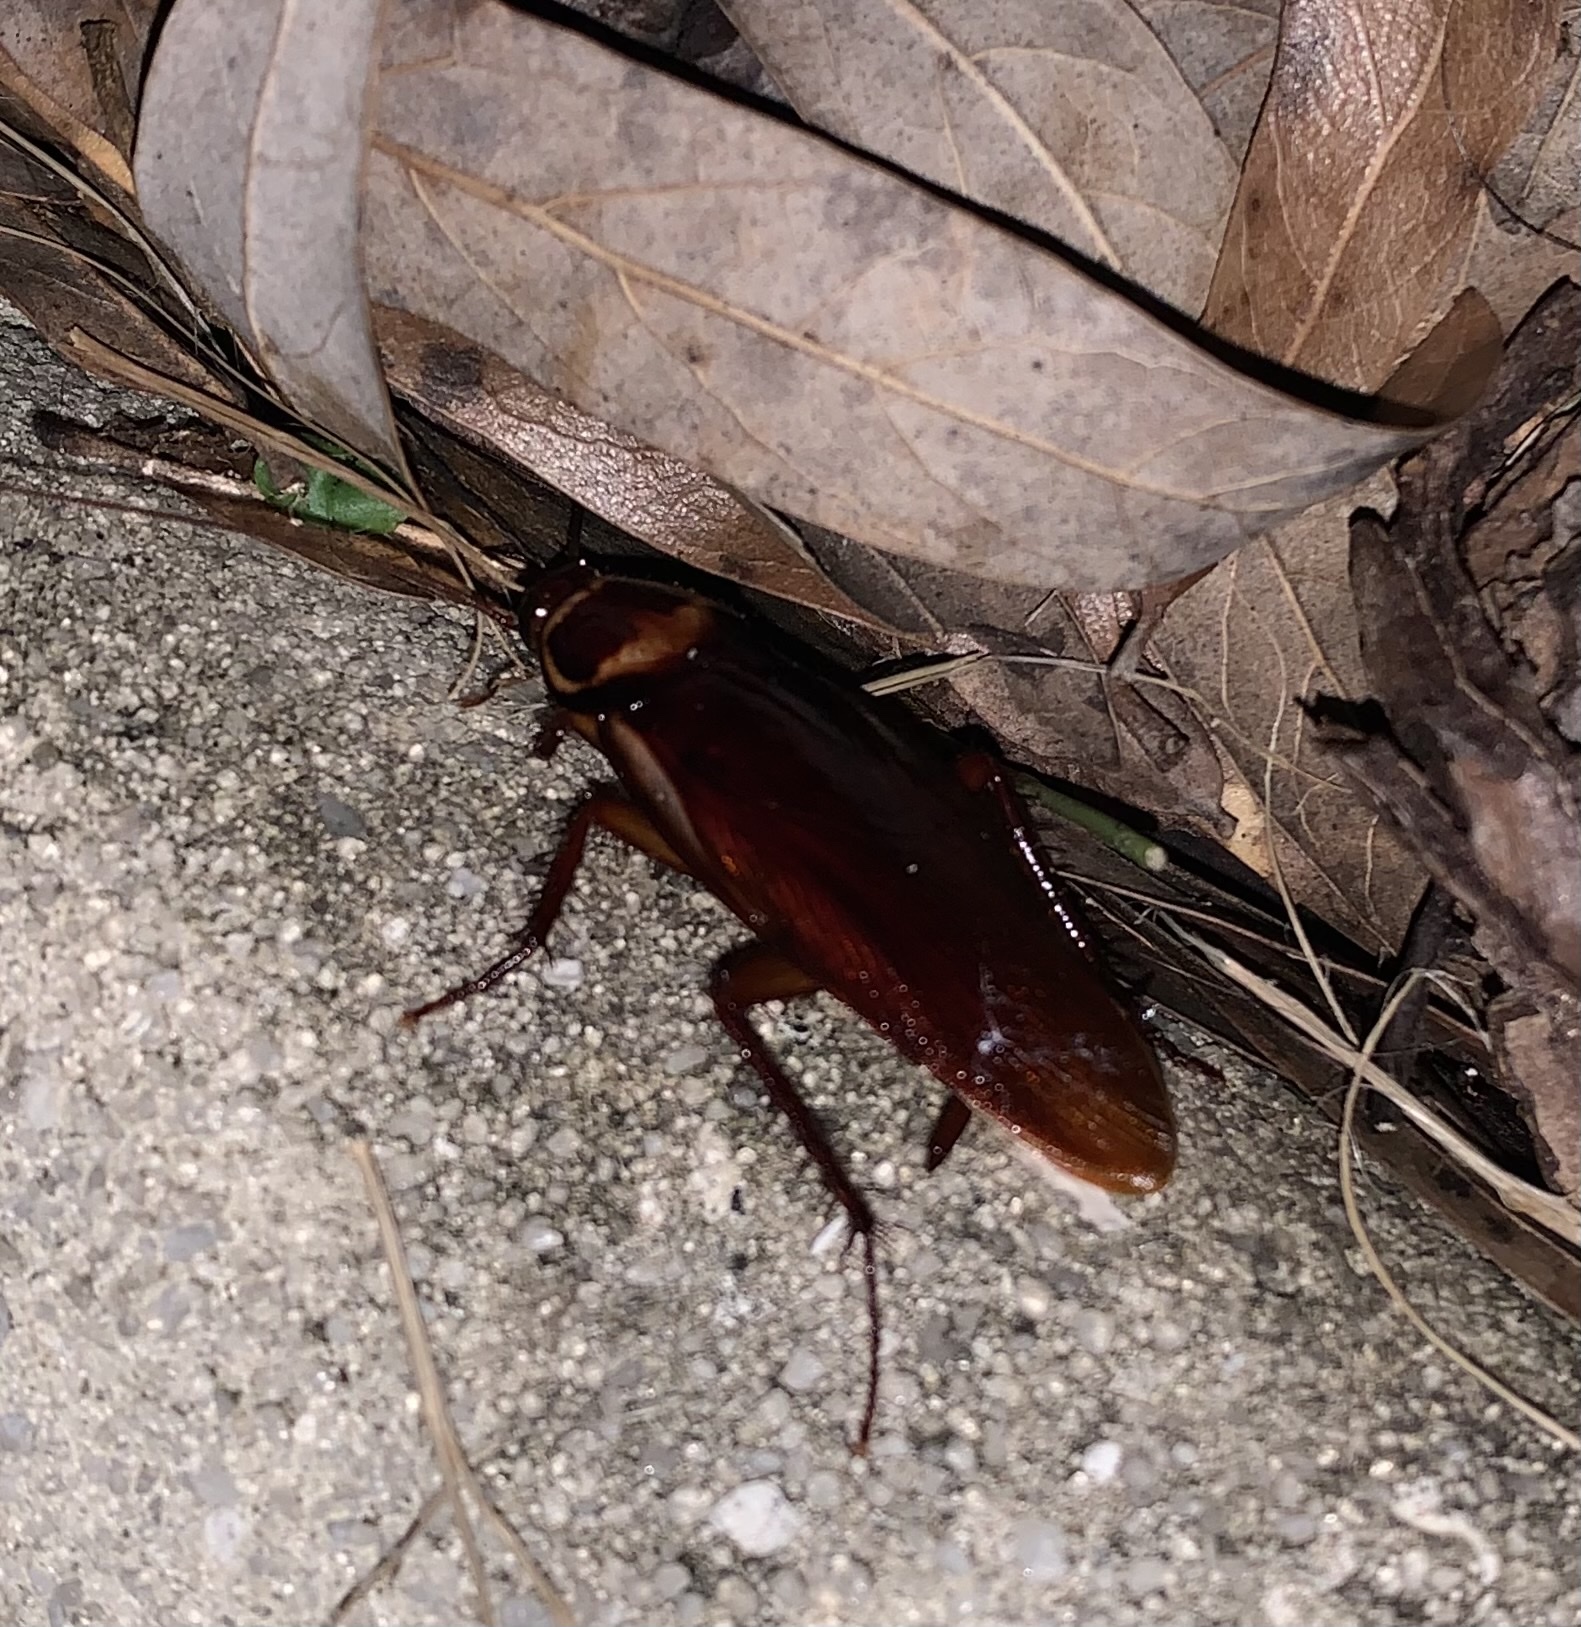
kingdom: Animalia
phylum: Arthropoda
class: Insecta
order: Blattodea
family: Blattidae
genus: Periplaneta
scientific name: Periplaneta australasiae
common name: Australian cockroach
